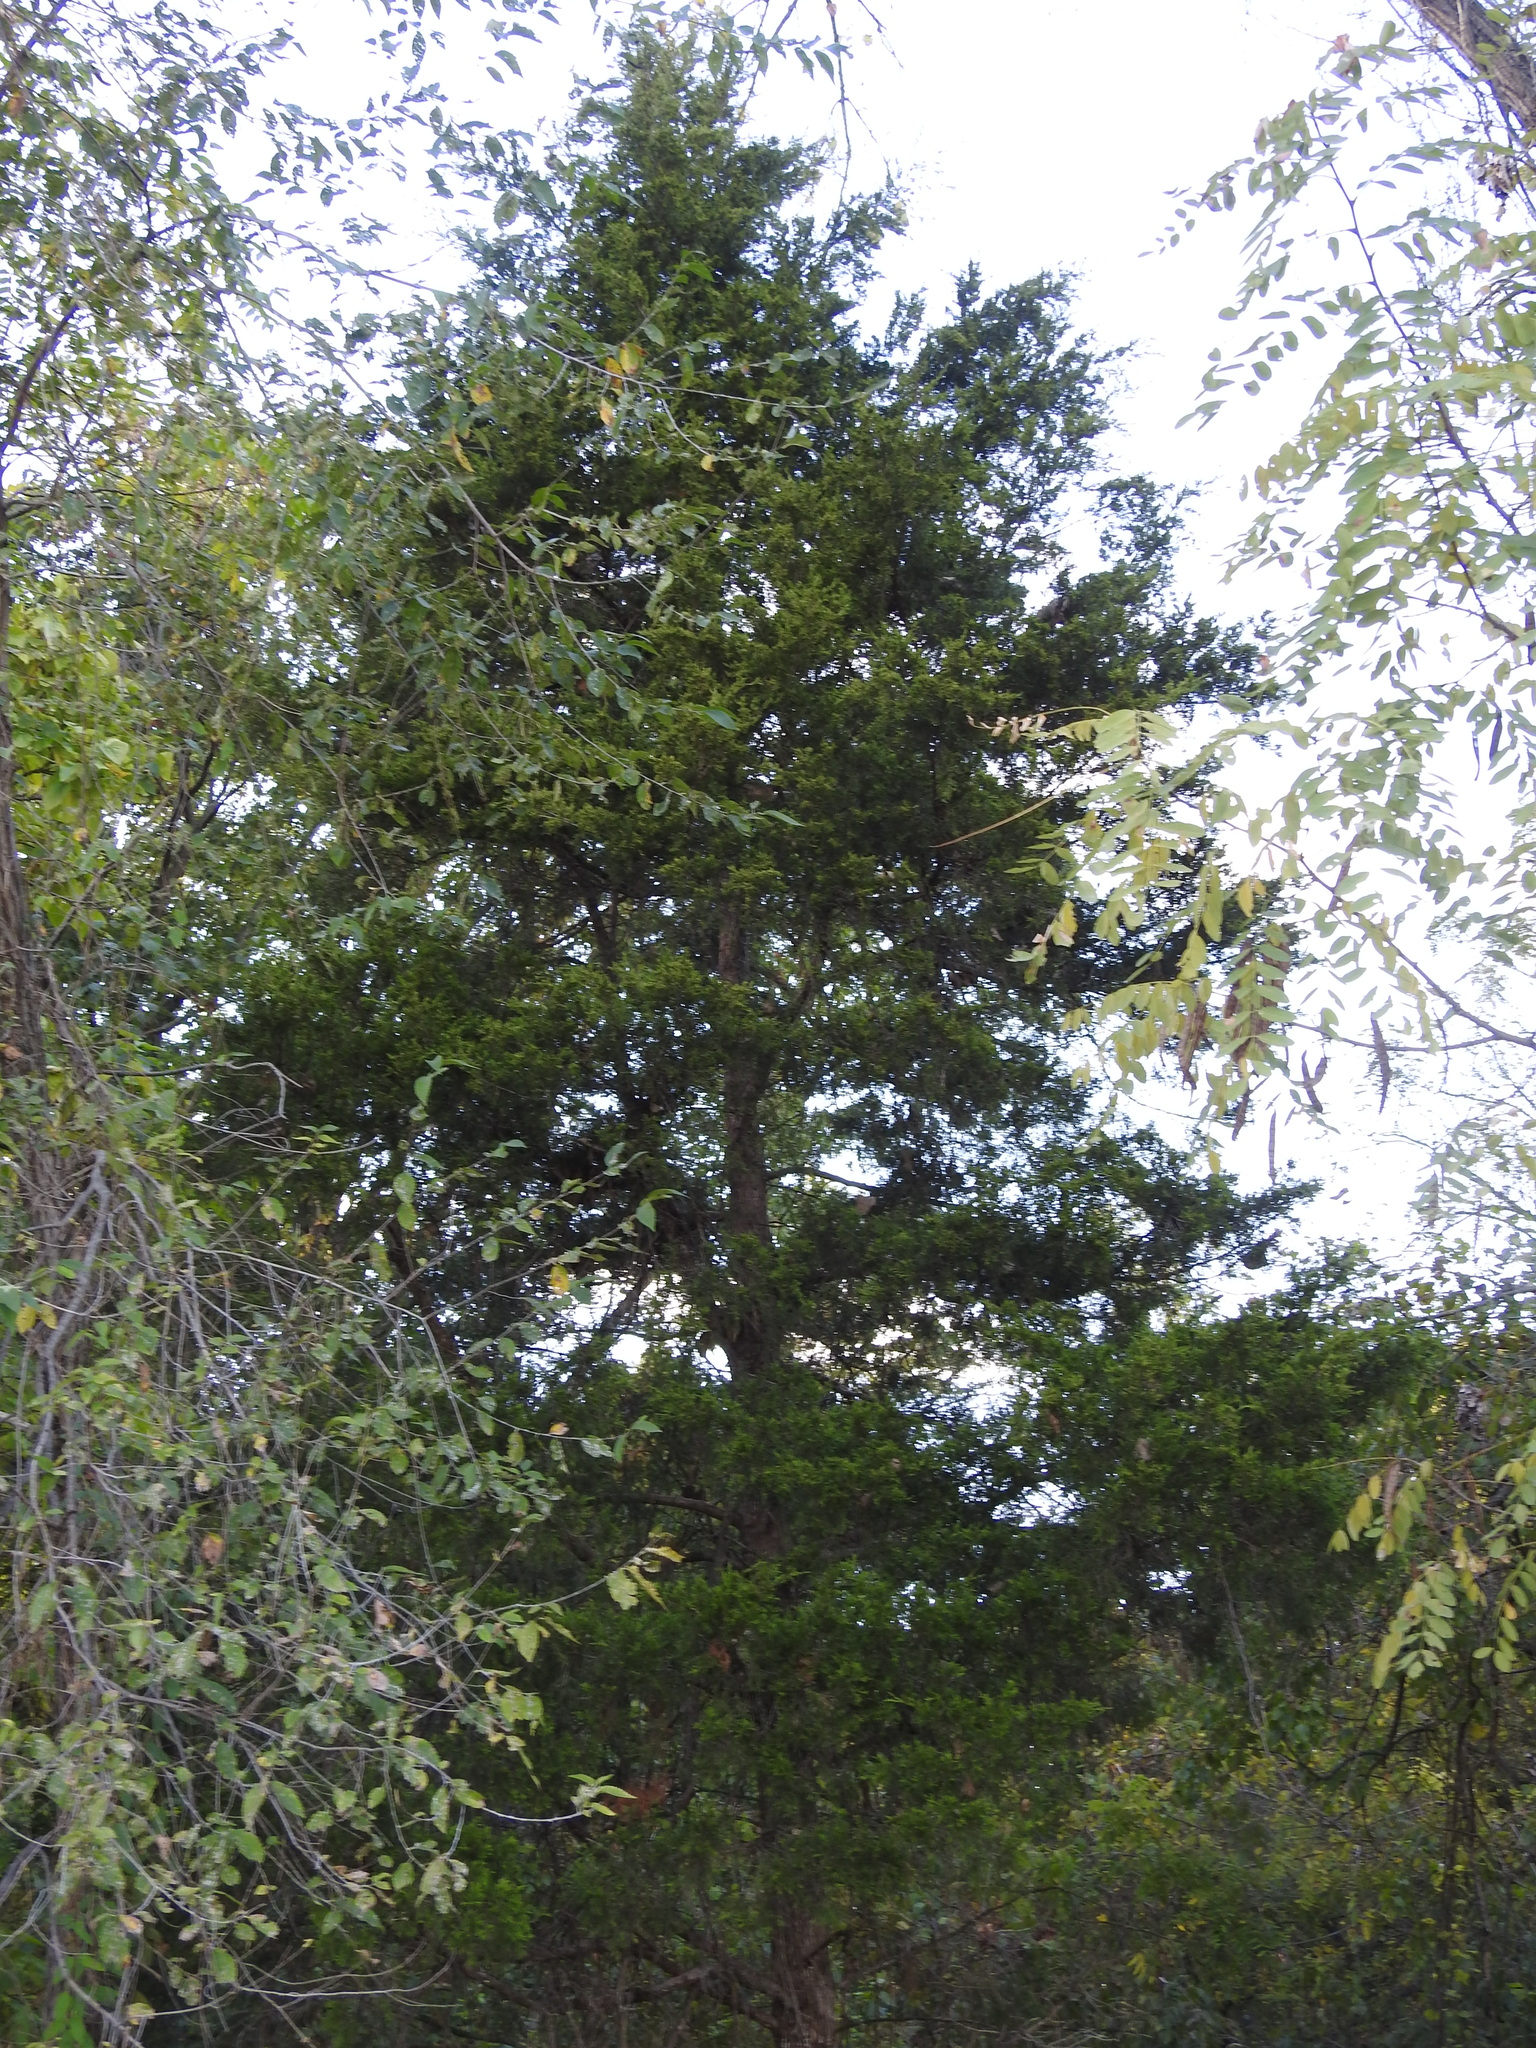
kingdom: Plantae
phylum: Tracheophyta
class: Pinopsida
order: Pinales
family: Cupressaceae
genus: Juniperus
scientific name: Juniperus virginiana
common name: Red juniper
